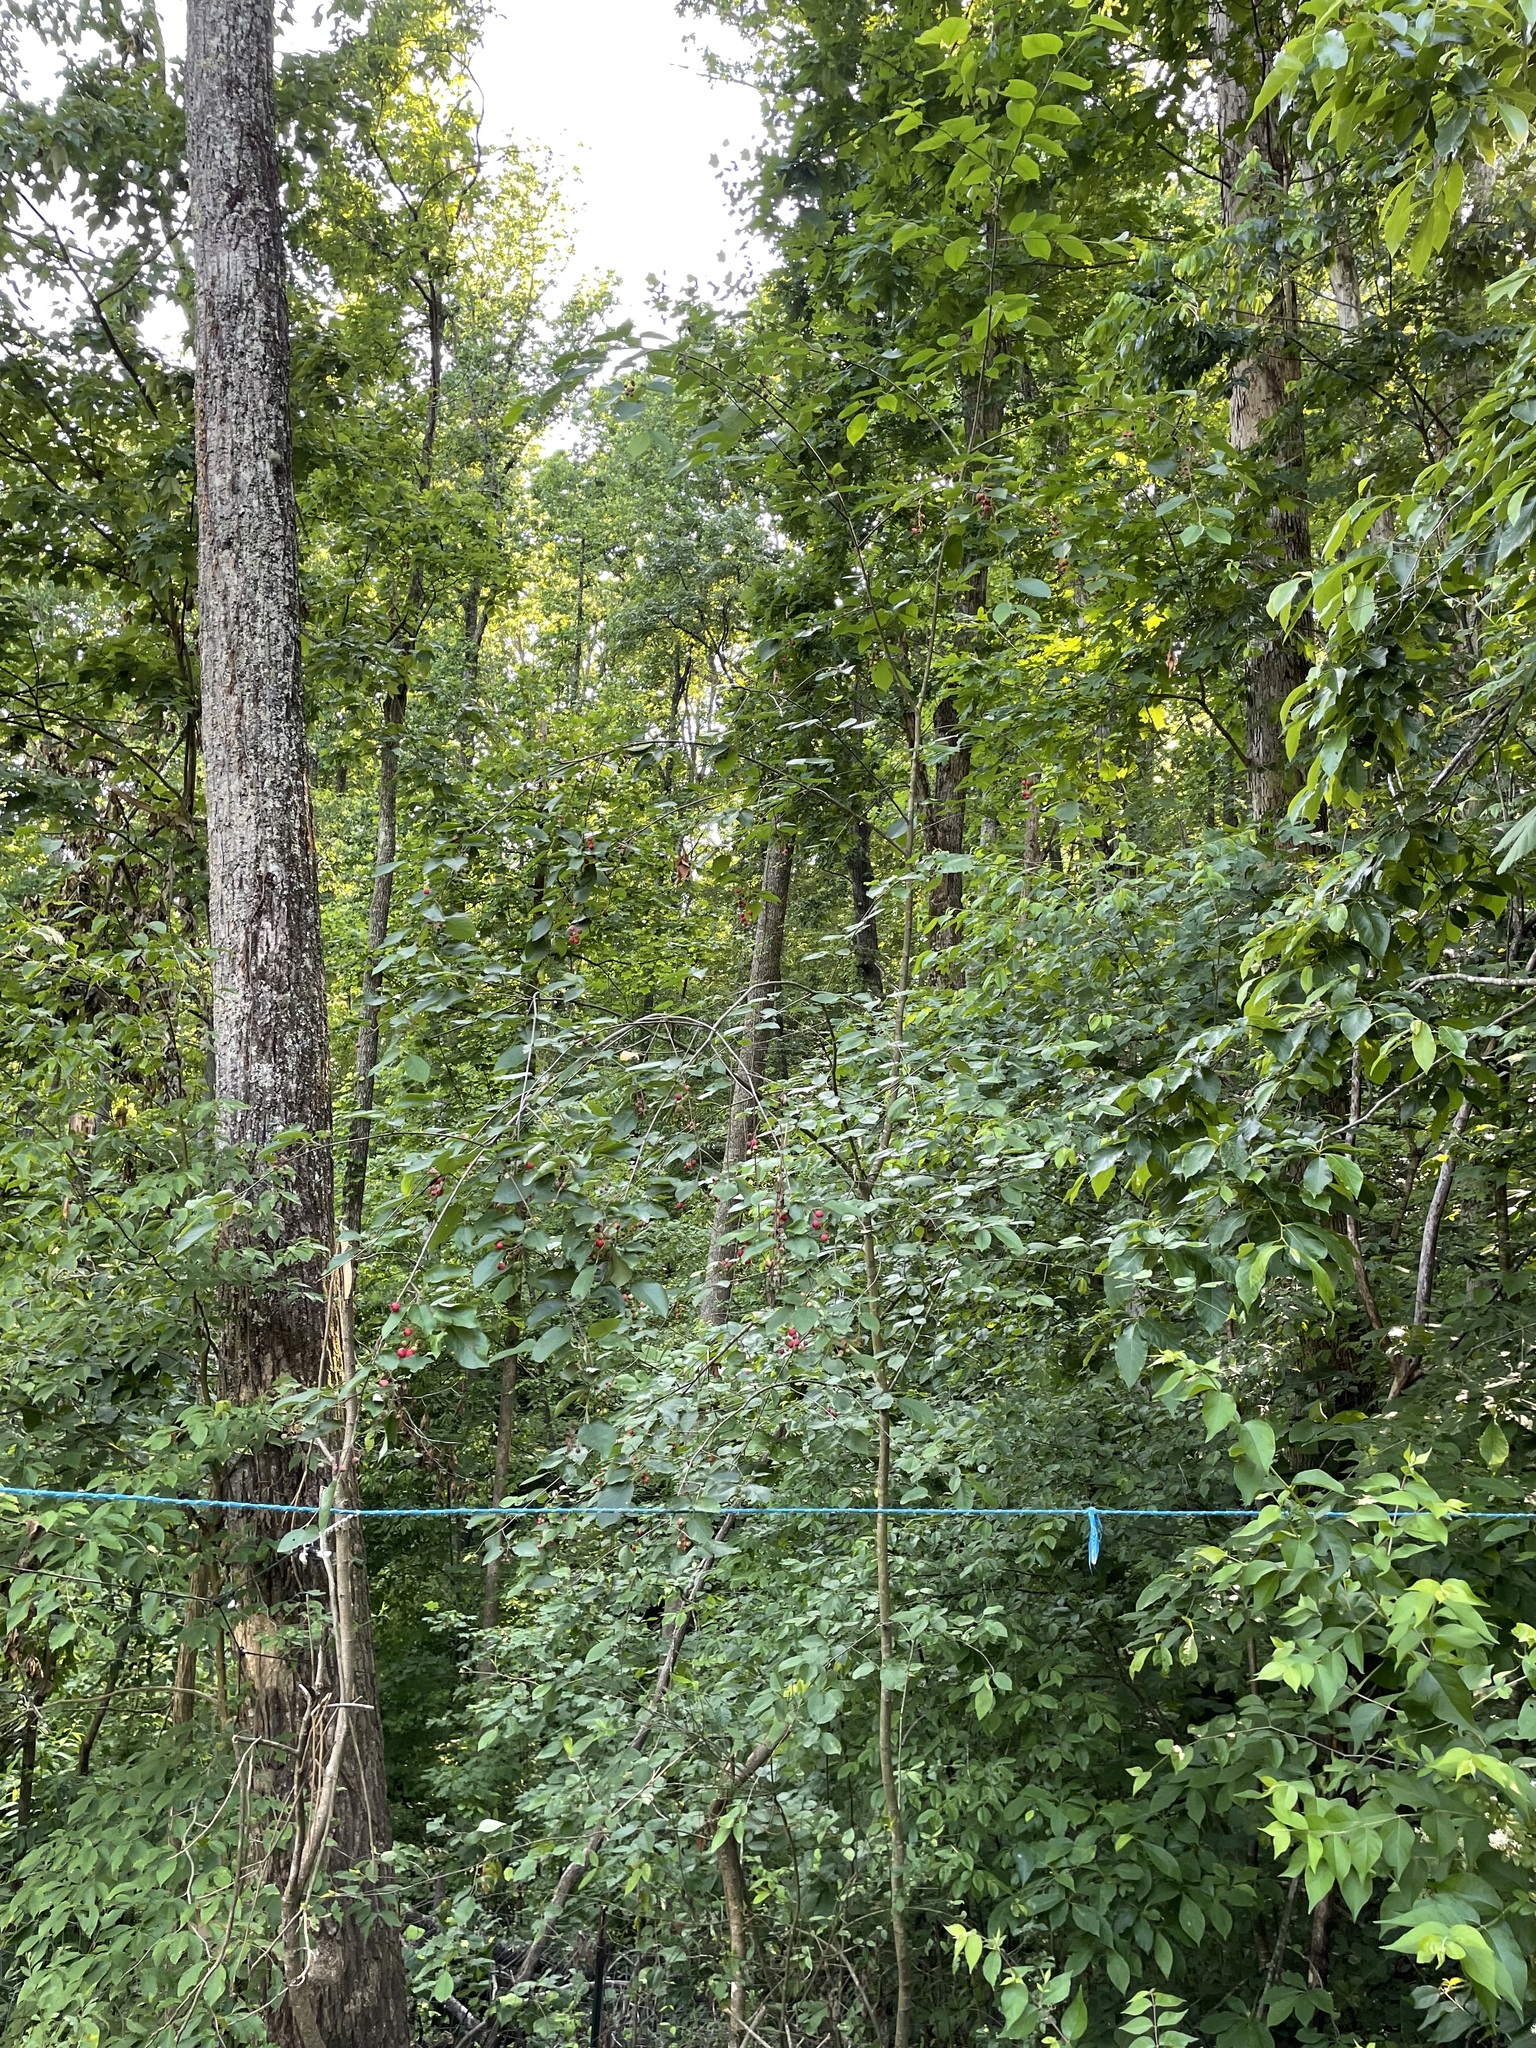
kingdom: Plantae
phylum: Tracheophyta
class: Magnoliopsida
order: Rosales
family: Rosaceae
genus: Amelanchier
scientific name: Amelanchier arborea
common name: Downy serviceberry
